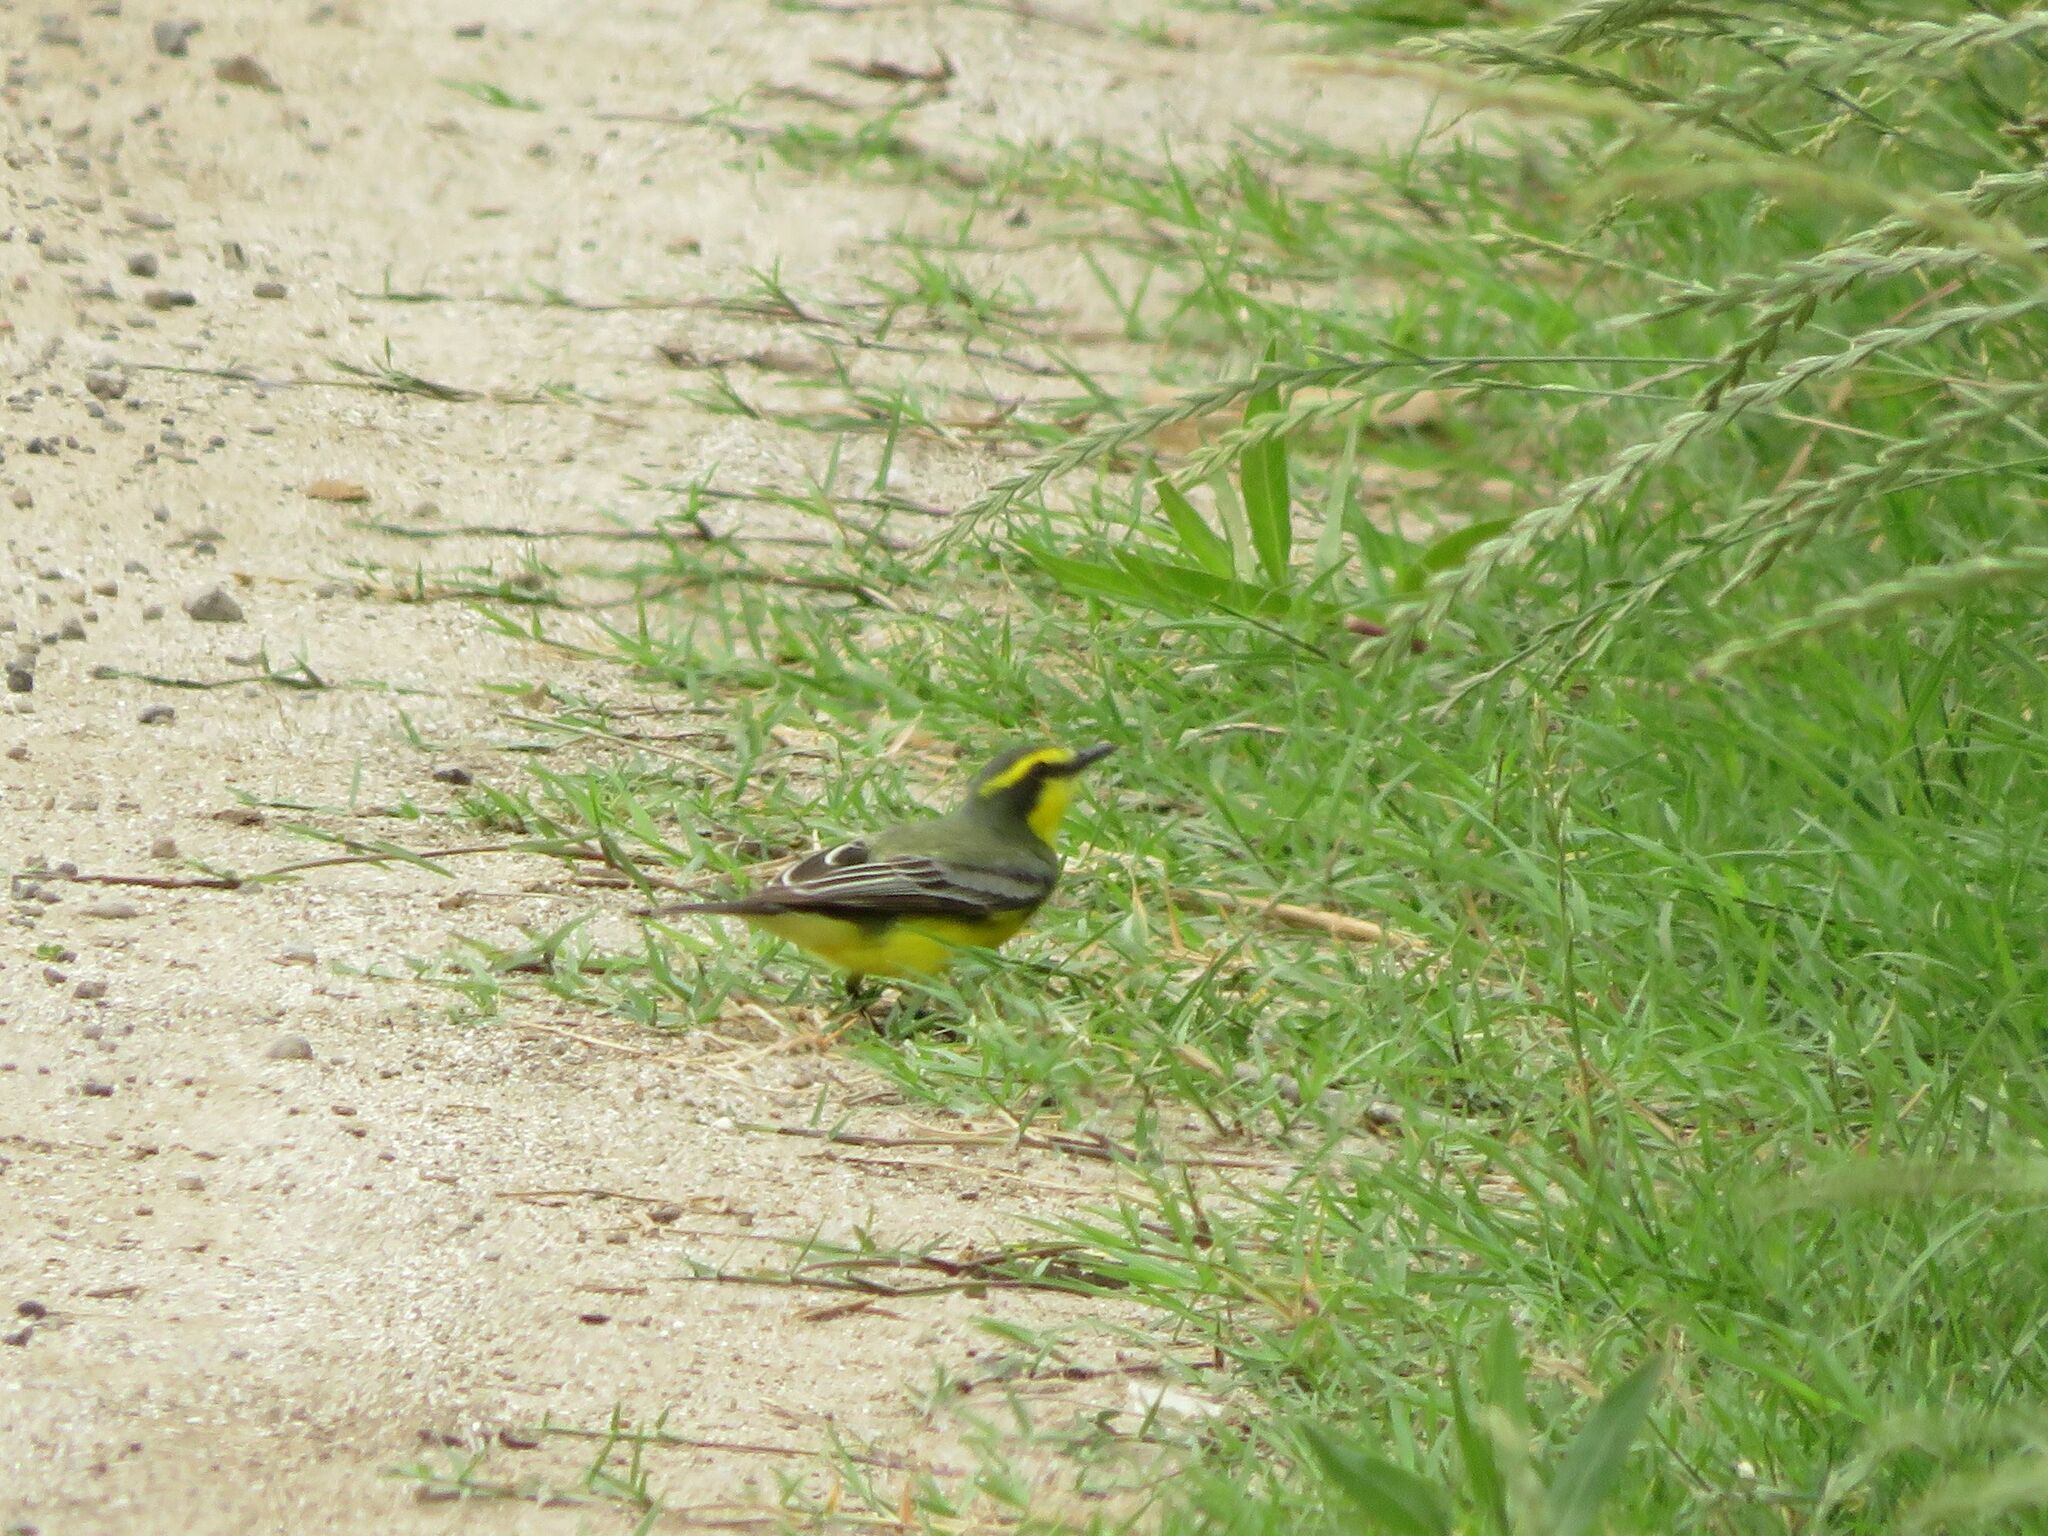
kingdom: Animalia
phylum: Chordata
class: Aves
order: Passeriformes
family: Tyrannidae
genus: Satrapa
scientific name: Satrapa icterophrys
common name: Yellow-browed tyrant
